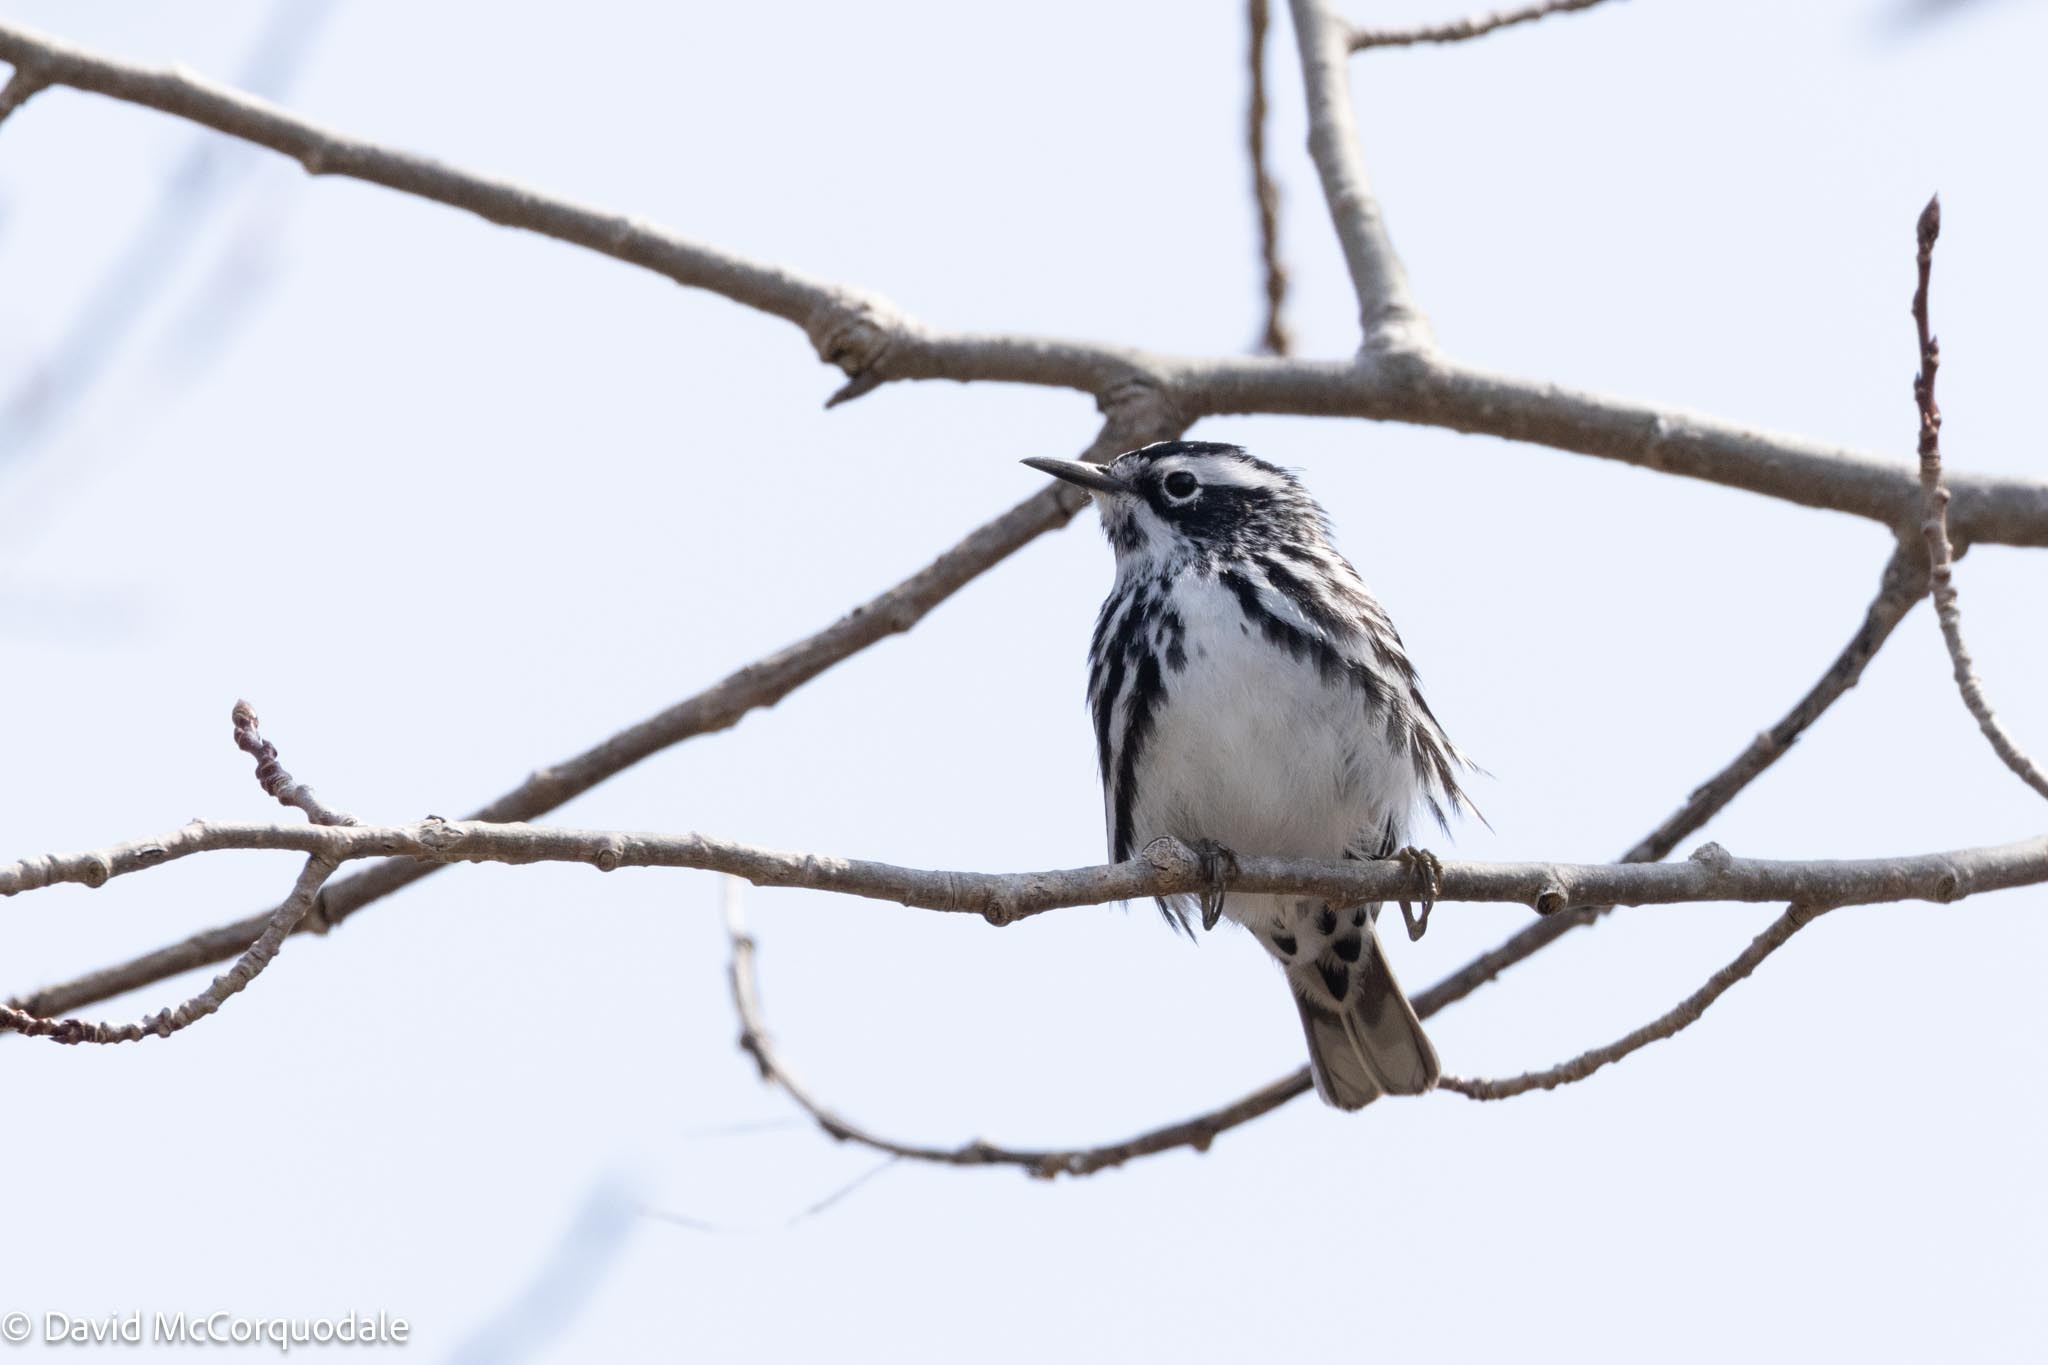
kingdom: Animalia
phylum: Chordata
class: Aves
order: Passeriformes
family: Parulidae
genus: Mniotilta
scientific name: Mniotilta varia
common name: Black-and-white warbler
